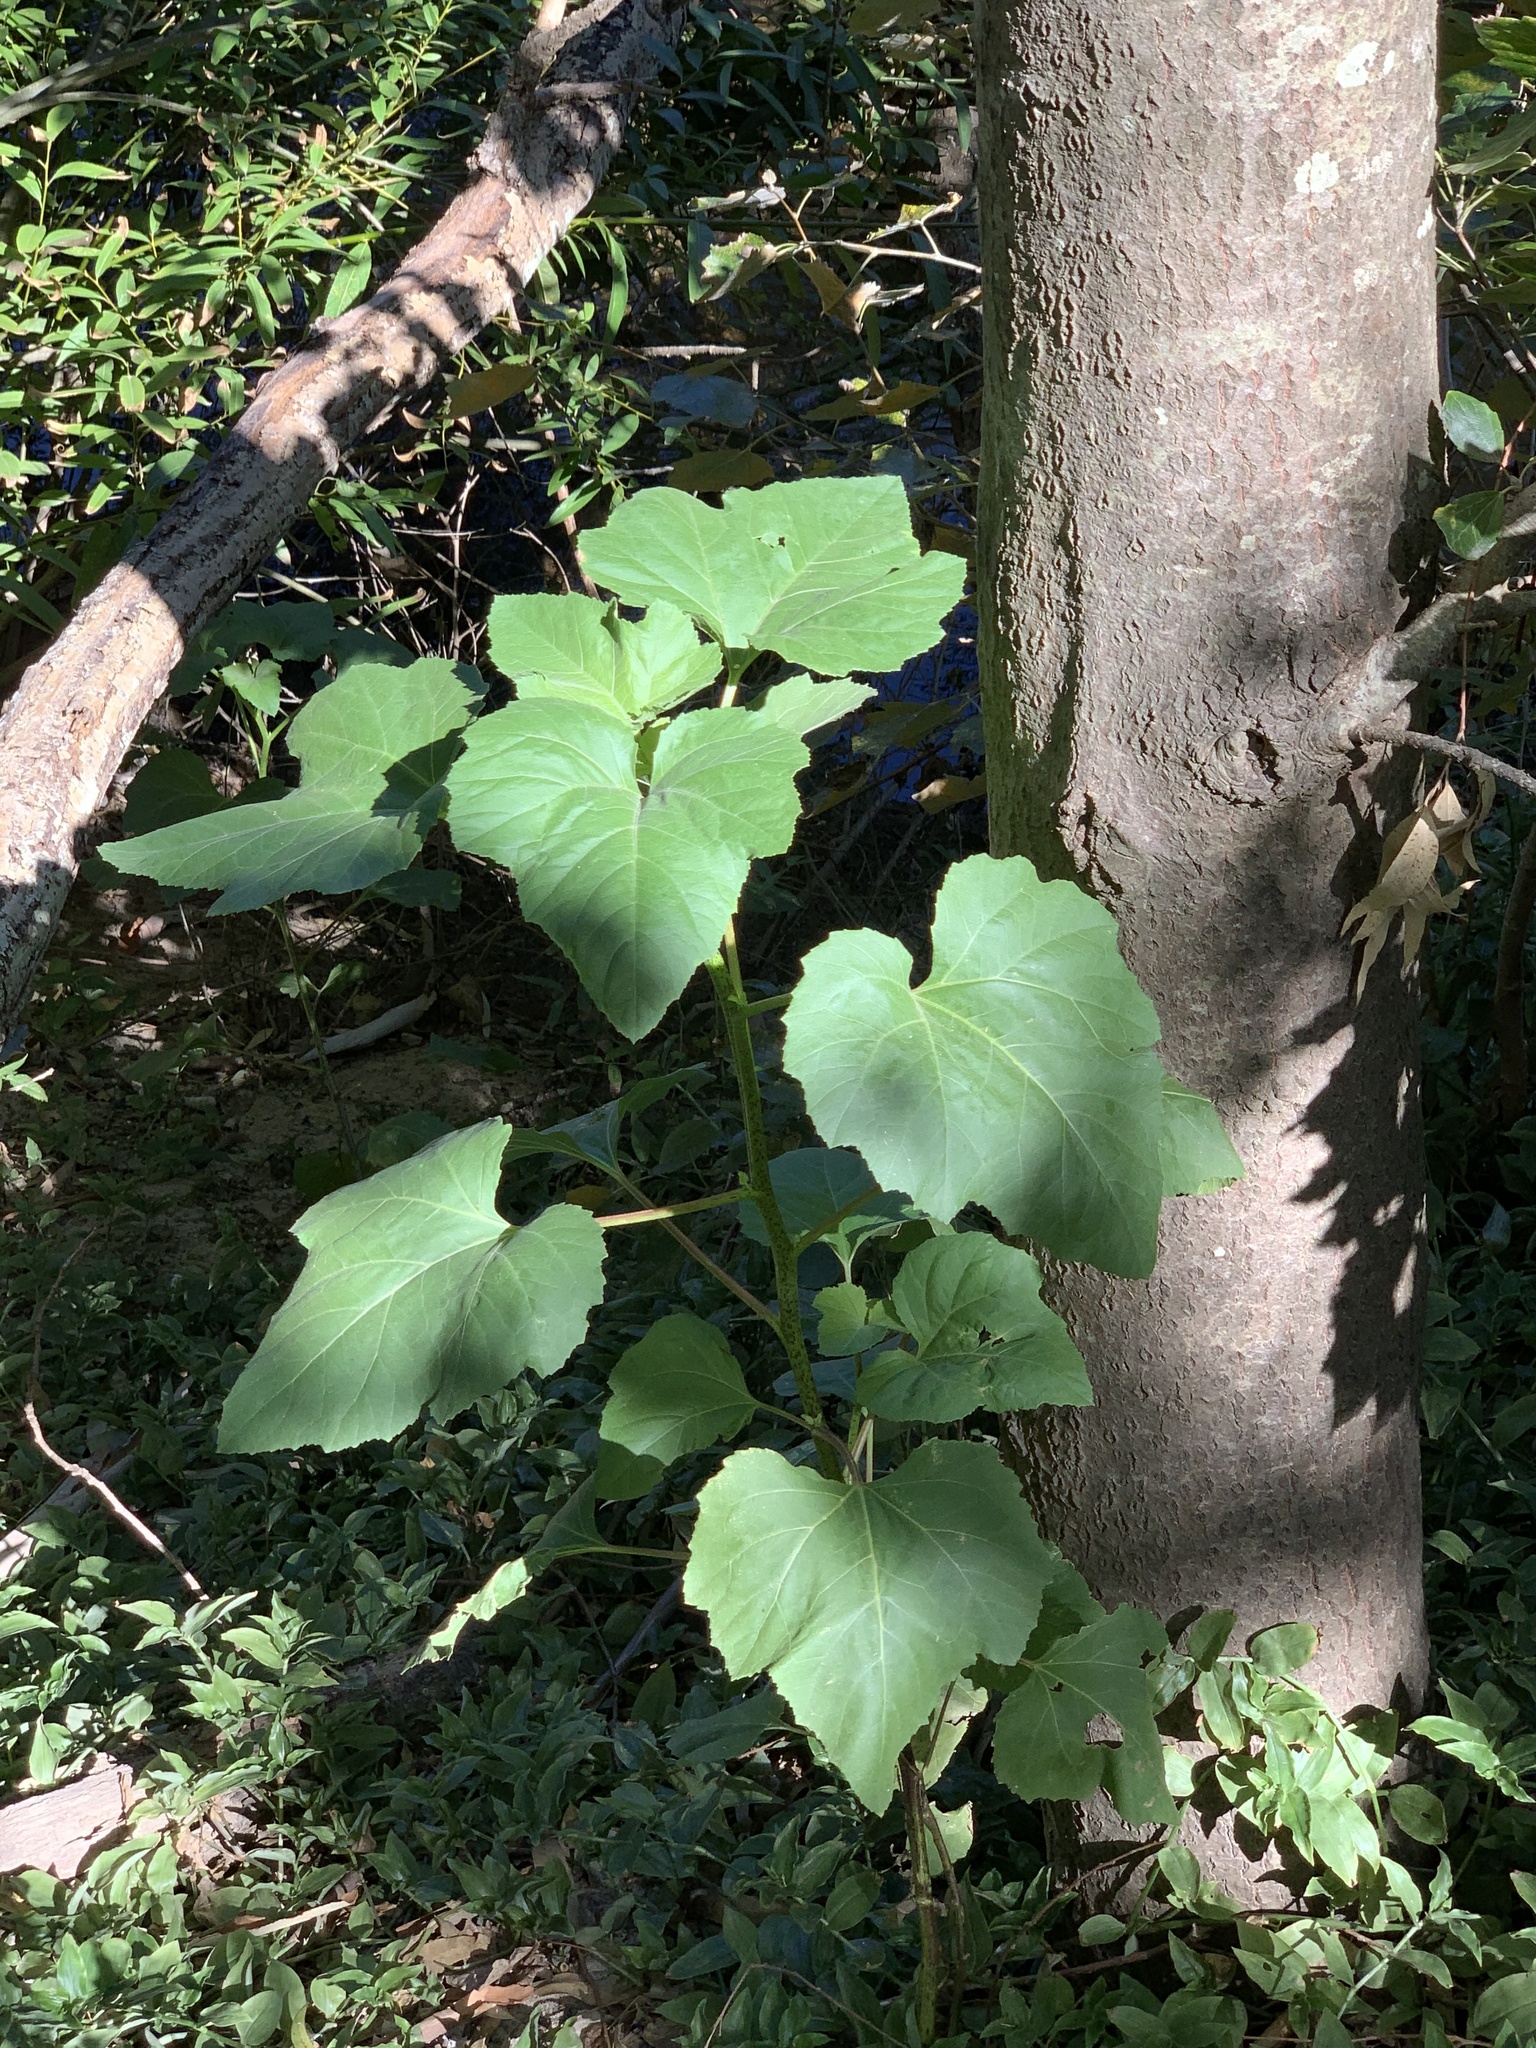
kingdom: Plantae
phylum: Tracheophyta
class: Magnoliopsida
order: Asterales
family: Asteraceae
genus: Xanthium
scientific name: Xanthium strumarium
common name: Rough cocklebur
